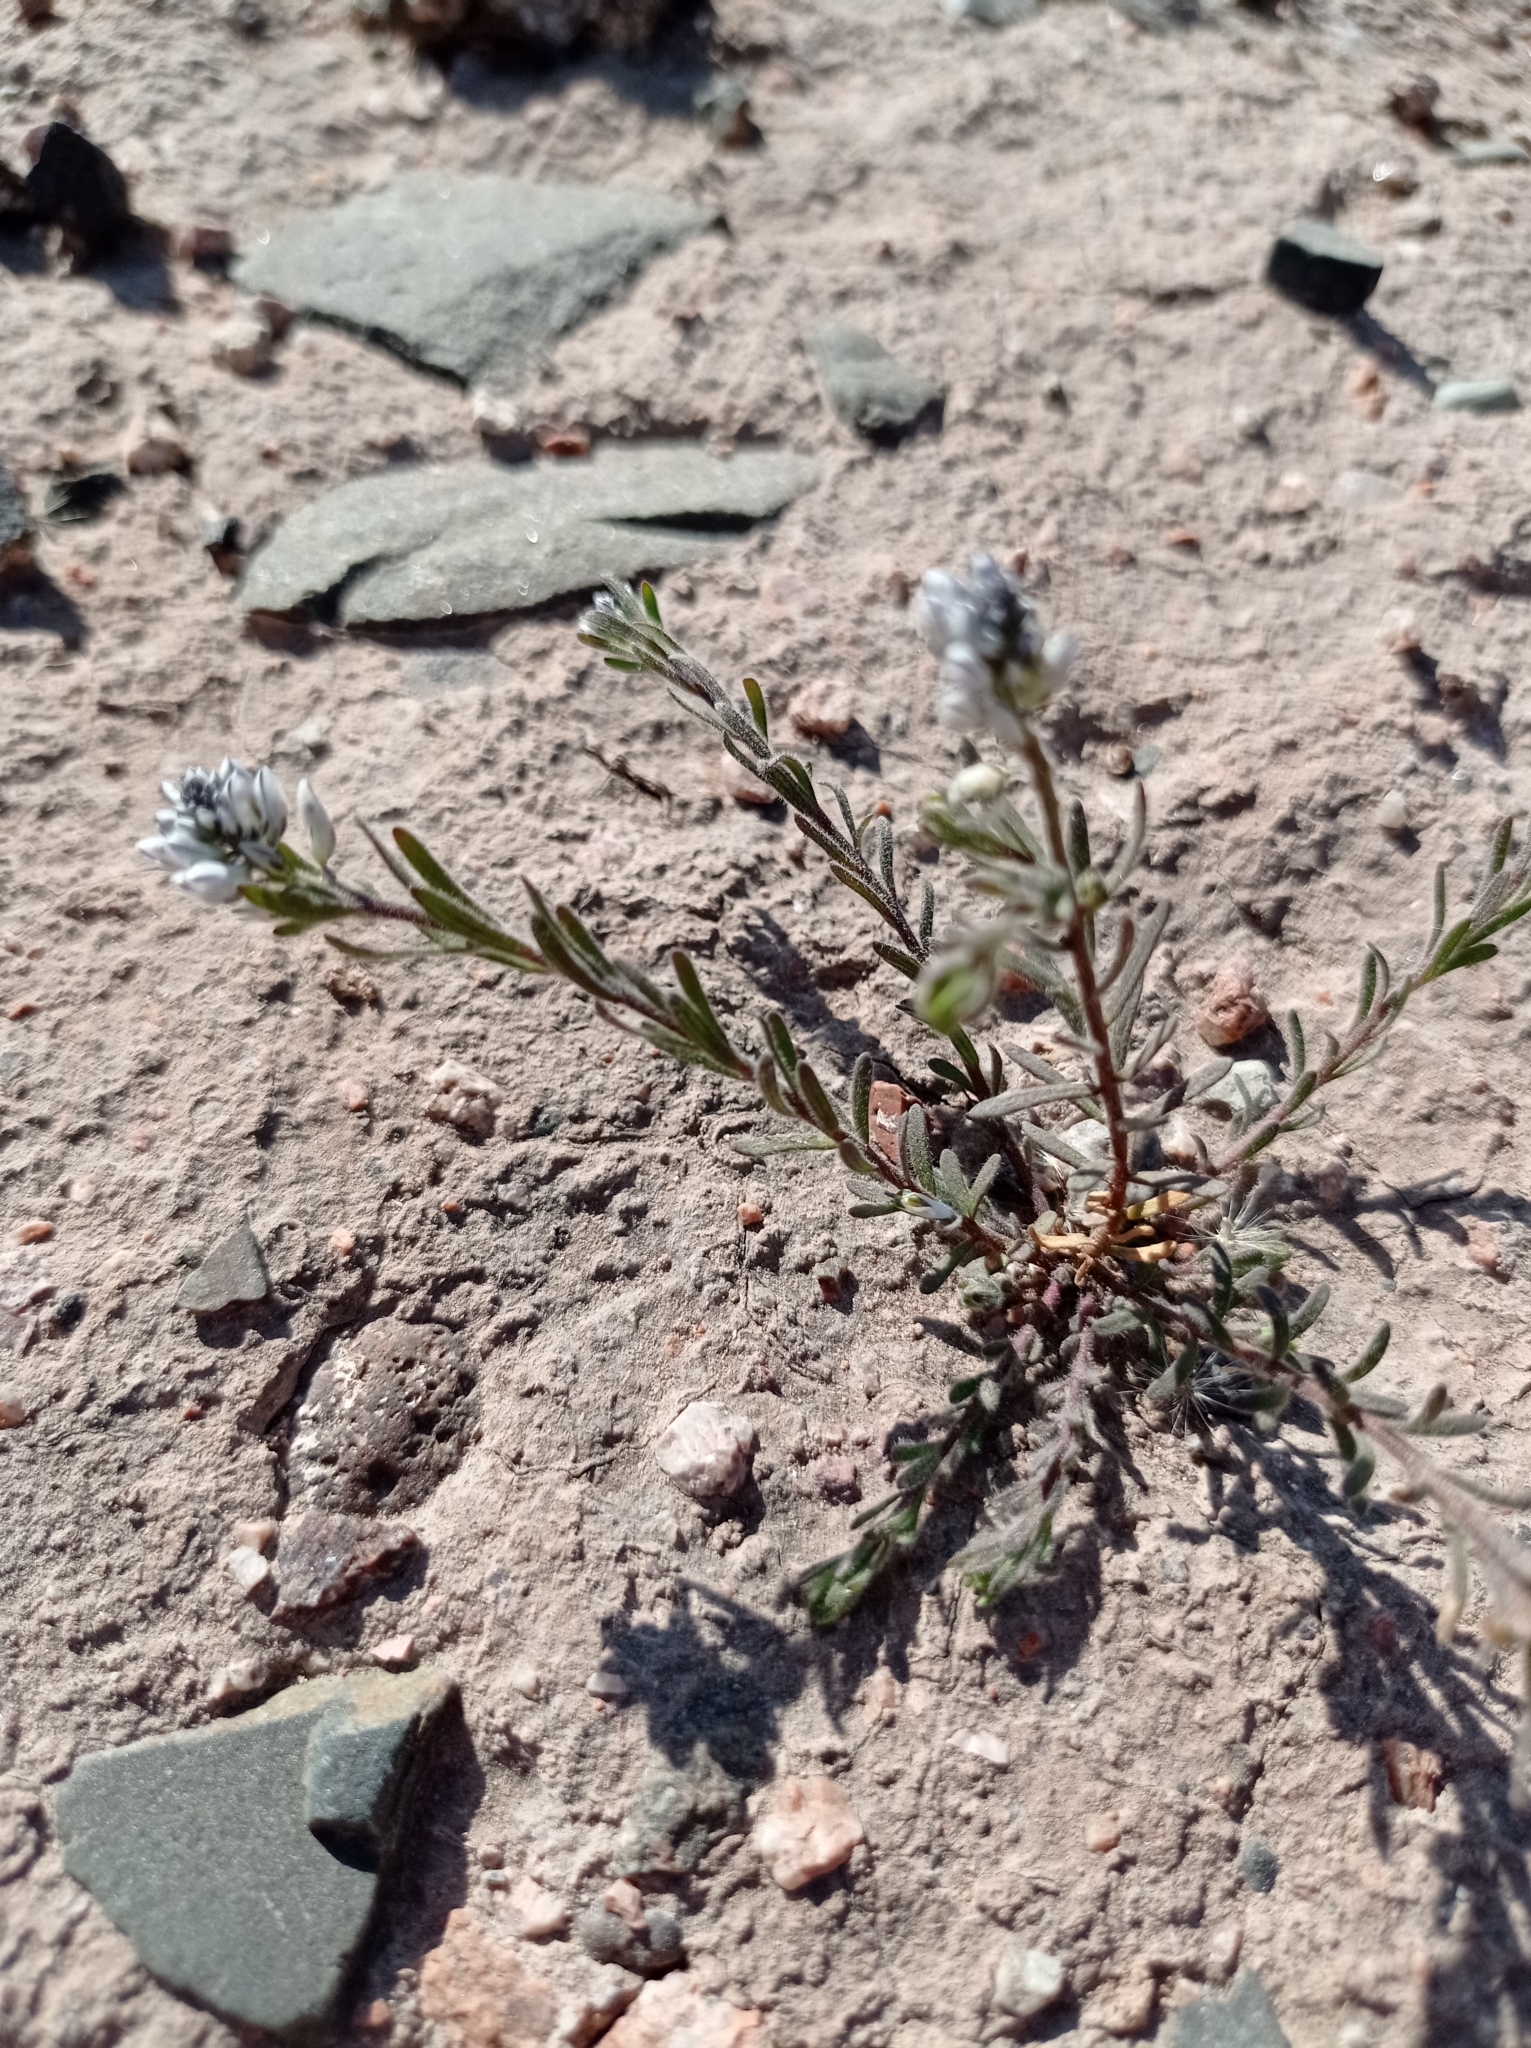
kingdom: Plantae
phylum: Tracheophyta
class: Magnoliopsida
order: Fabales
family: Polygalaceae
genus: Polygala
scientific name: Polygala subandina
